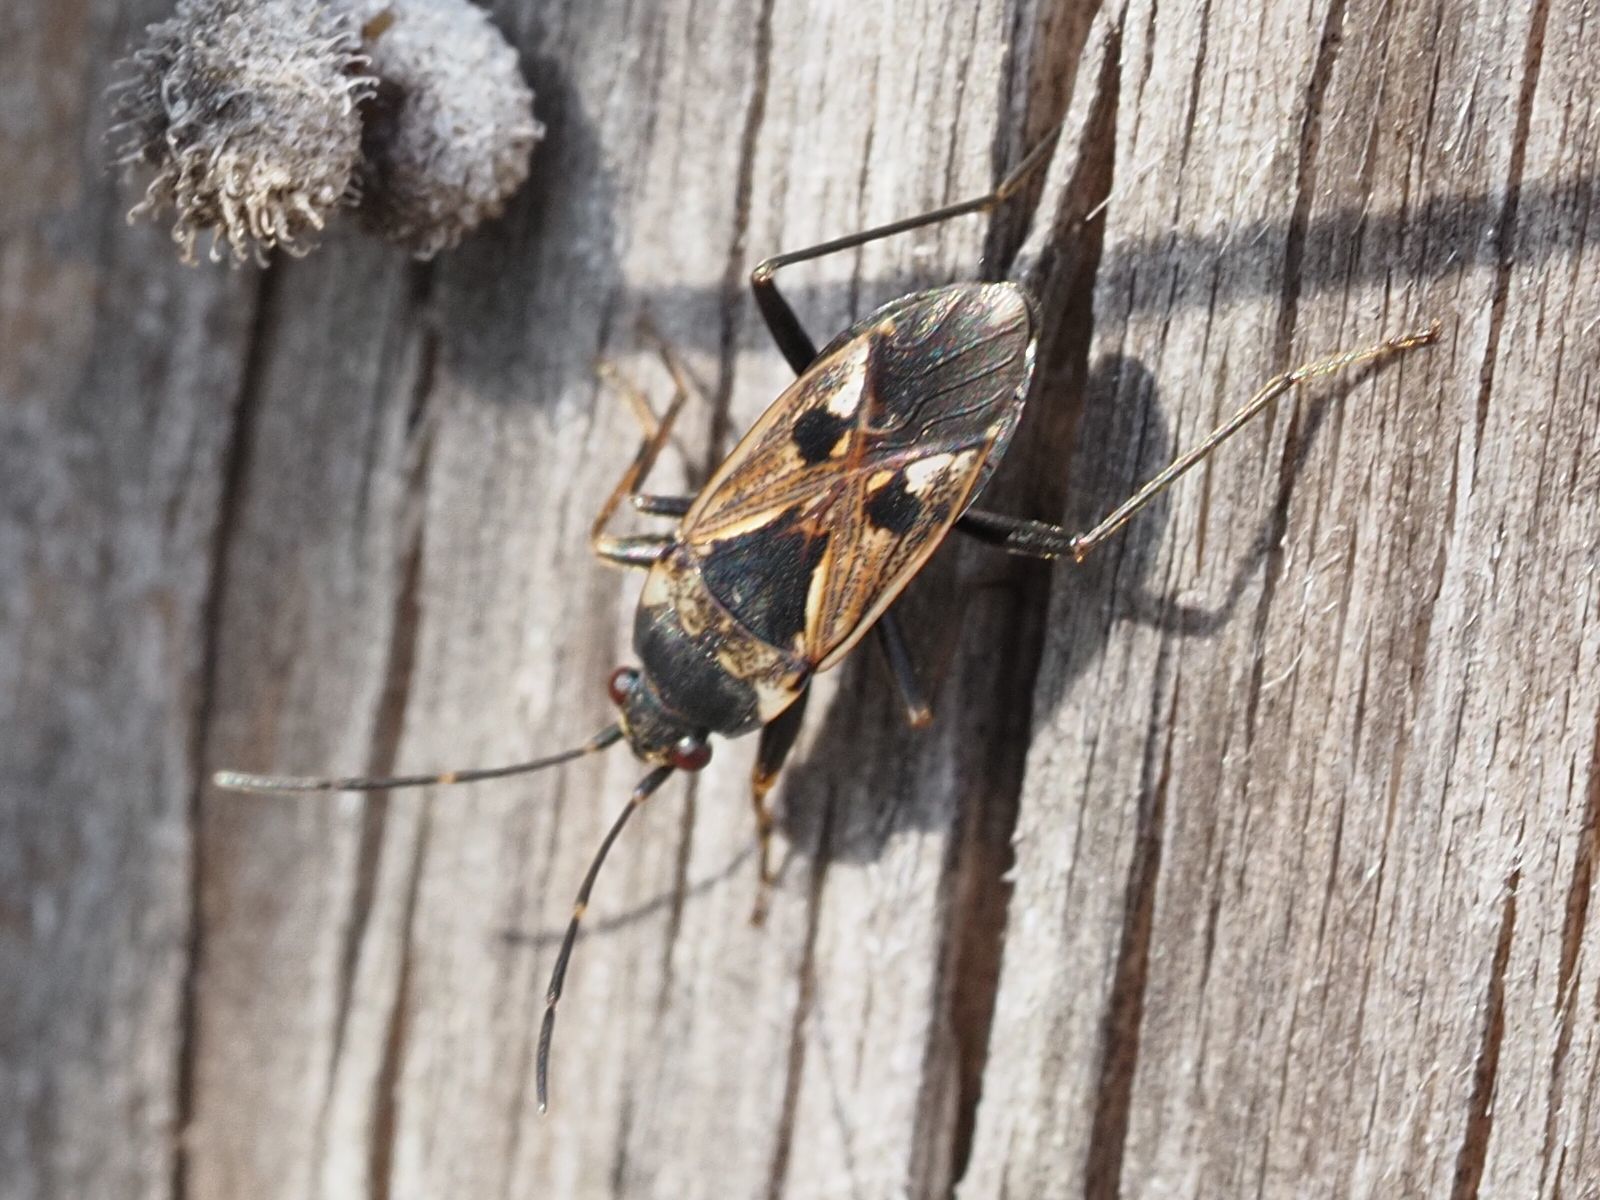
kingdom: Animalia
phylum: Arthropoda
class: Insecta
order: Hemiptera
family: Rhyparochromidae
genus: Rhyparochromus
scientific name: Rhyparochromus vulgaris
